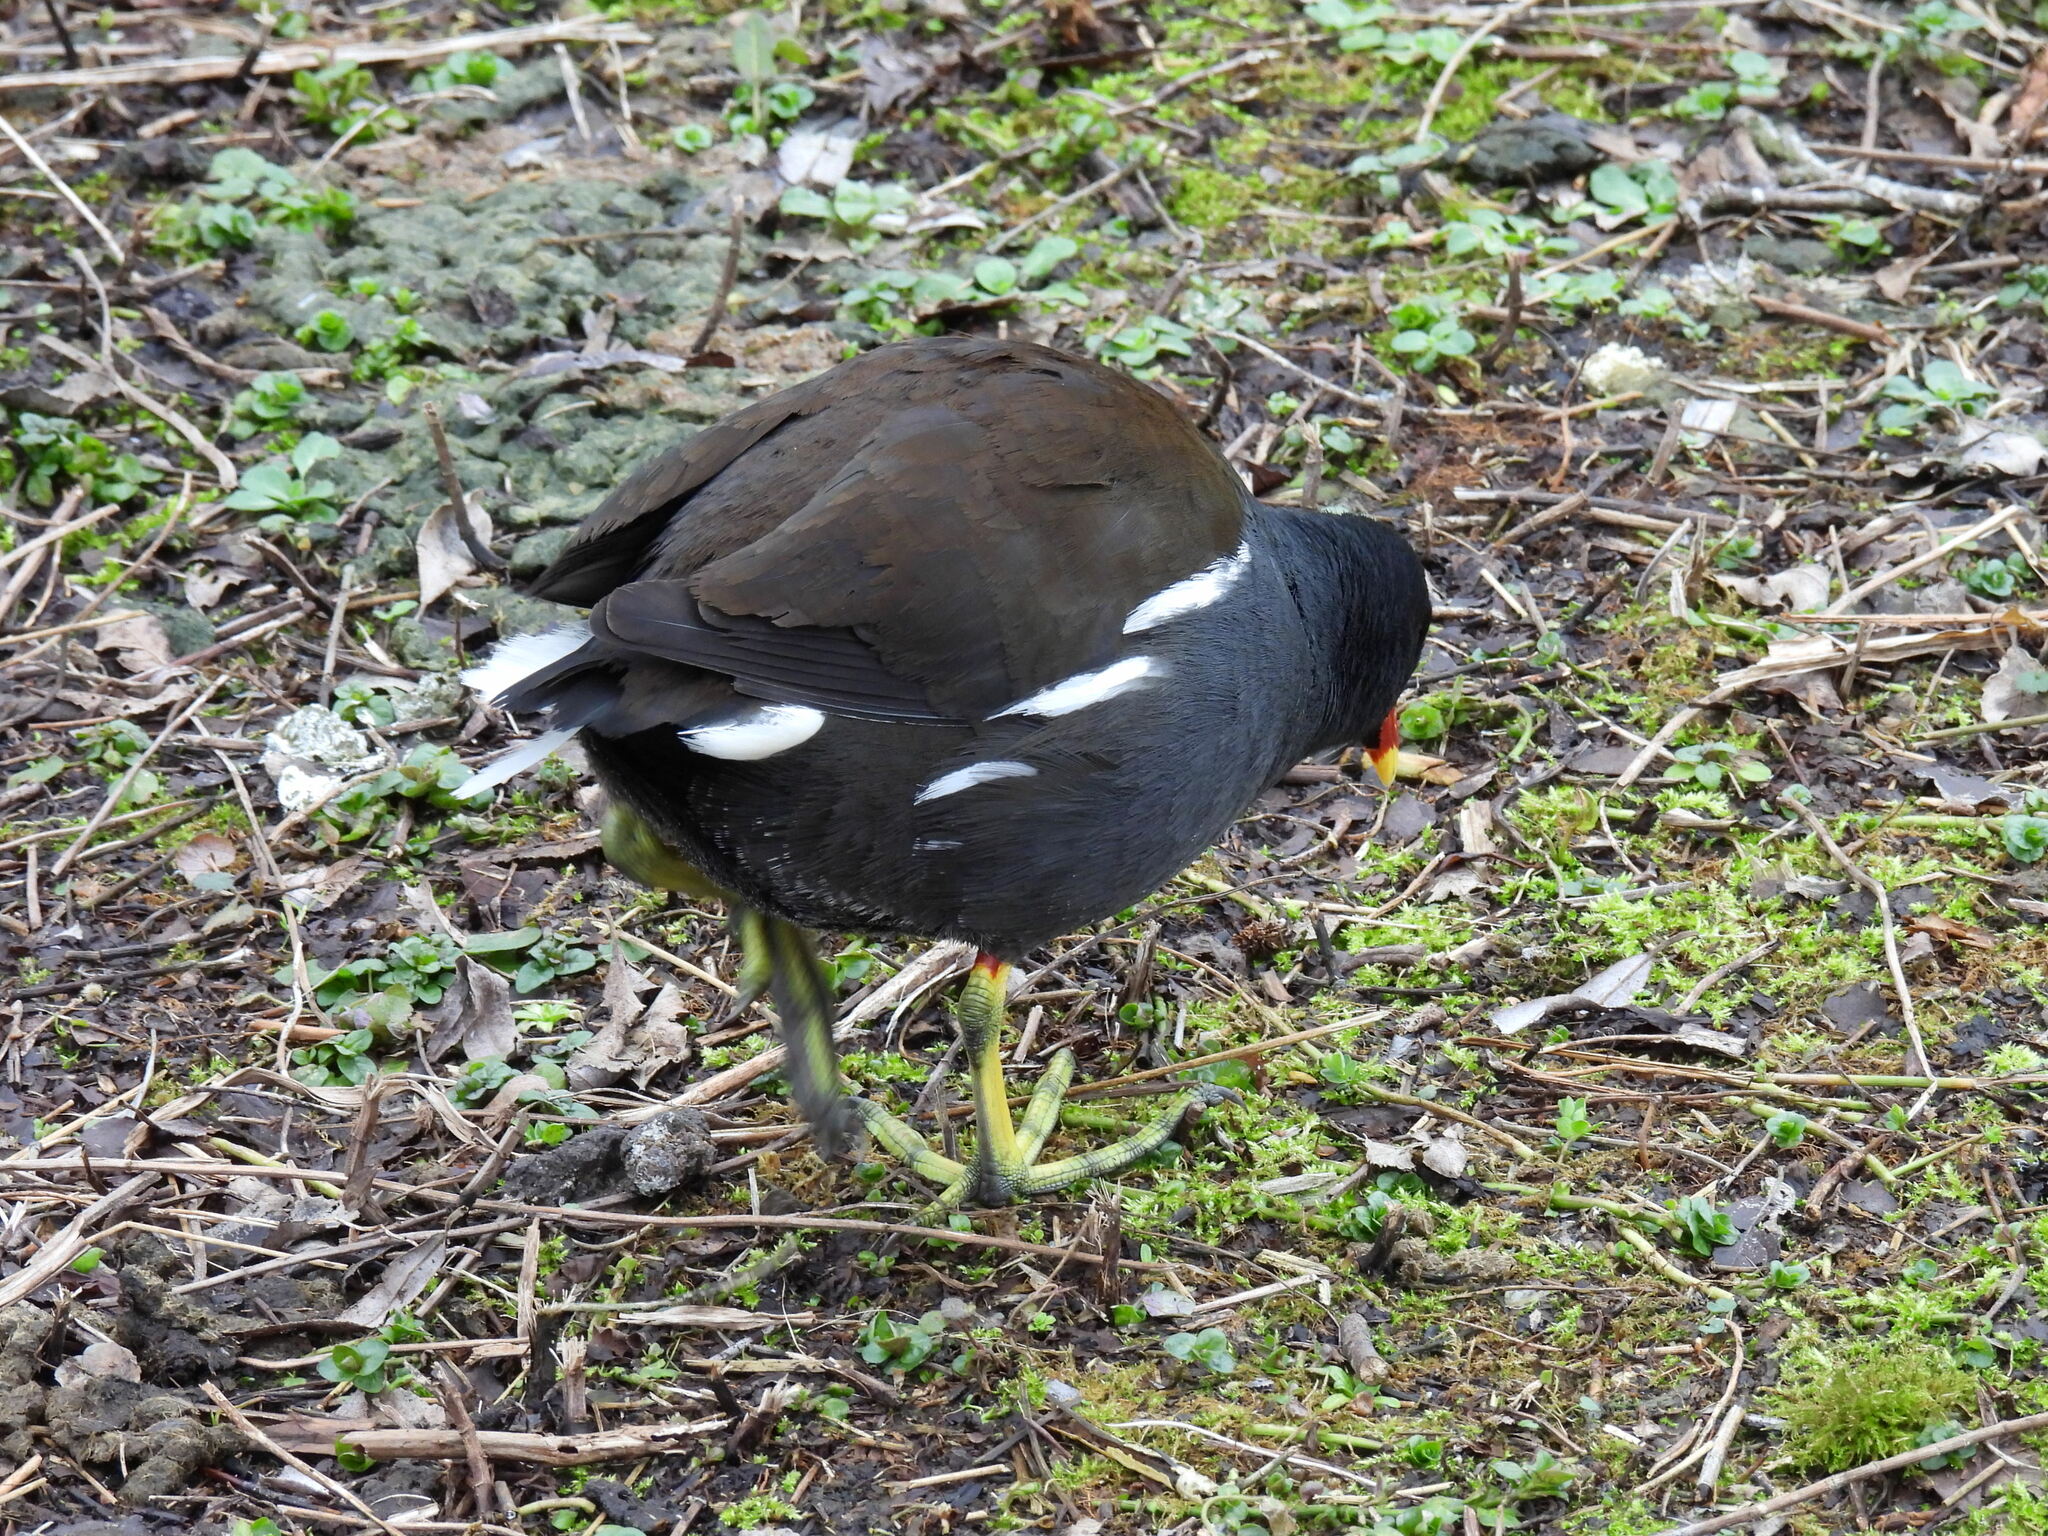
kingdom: Animalia
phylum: Chordata
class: Aves
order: Gruiformes
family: Rallidae
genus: Gallinula
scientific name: Gallinula chloropus
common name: Common moorhen
